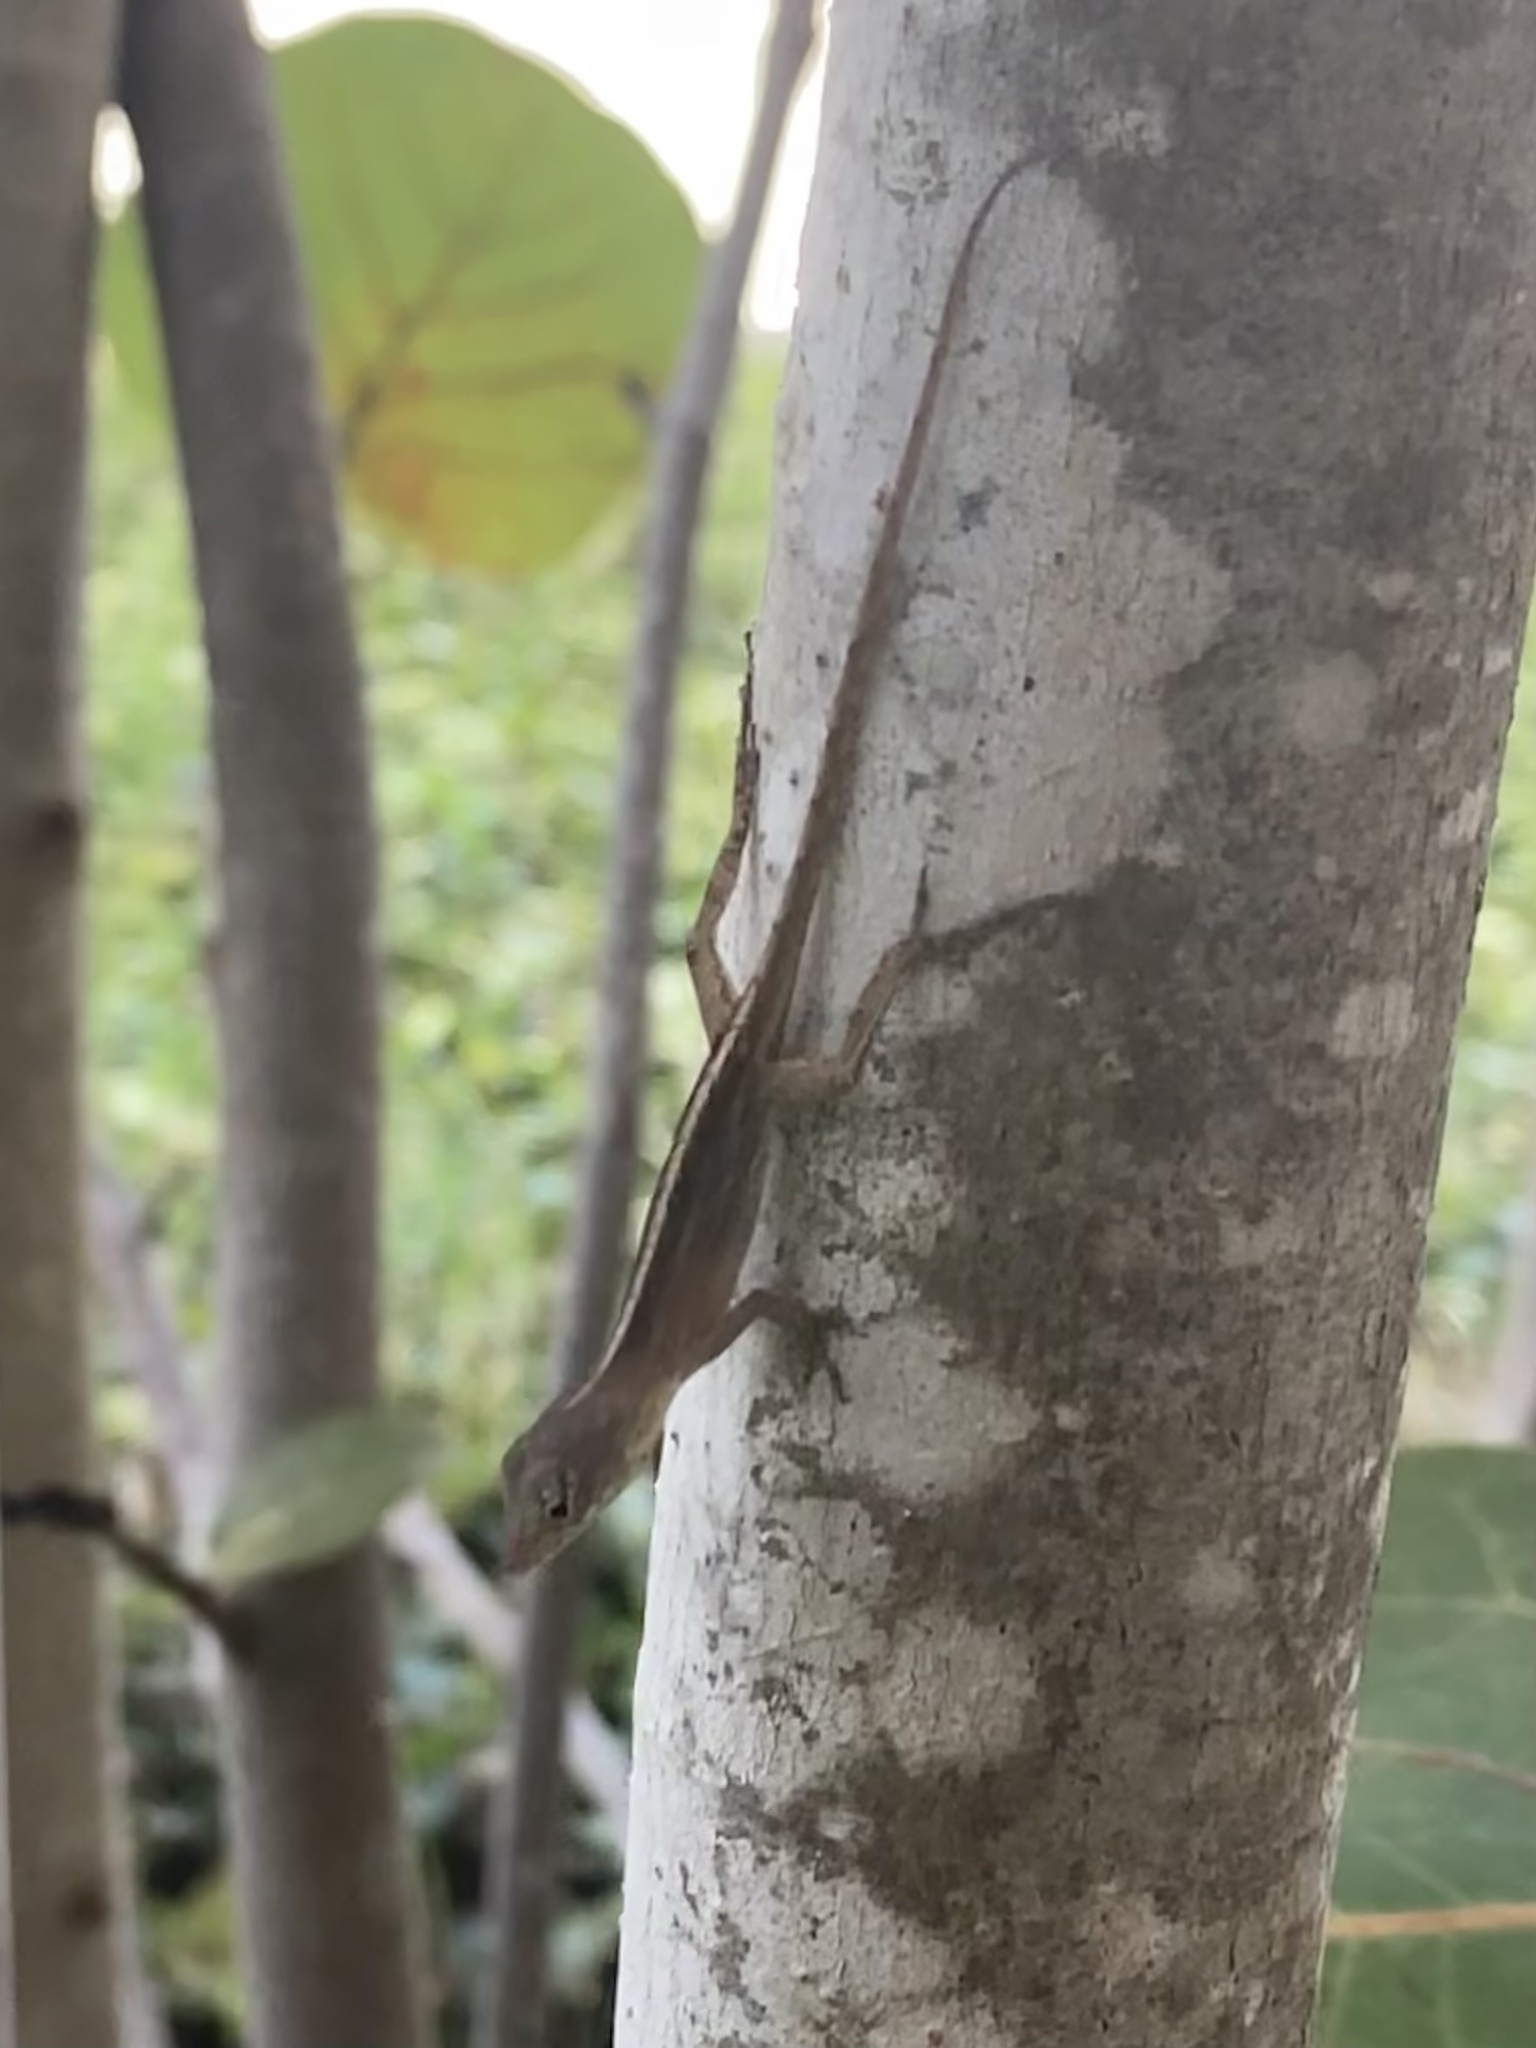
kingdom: Animalia
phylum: Chordata
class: Squamata
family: Dactyloidae
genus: Anolis
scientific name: Anolis sagrei
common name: Brown anole
